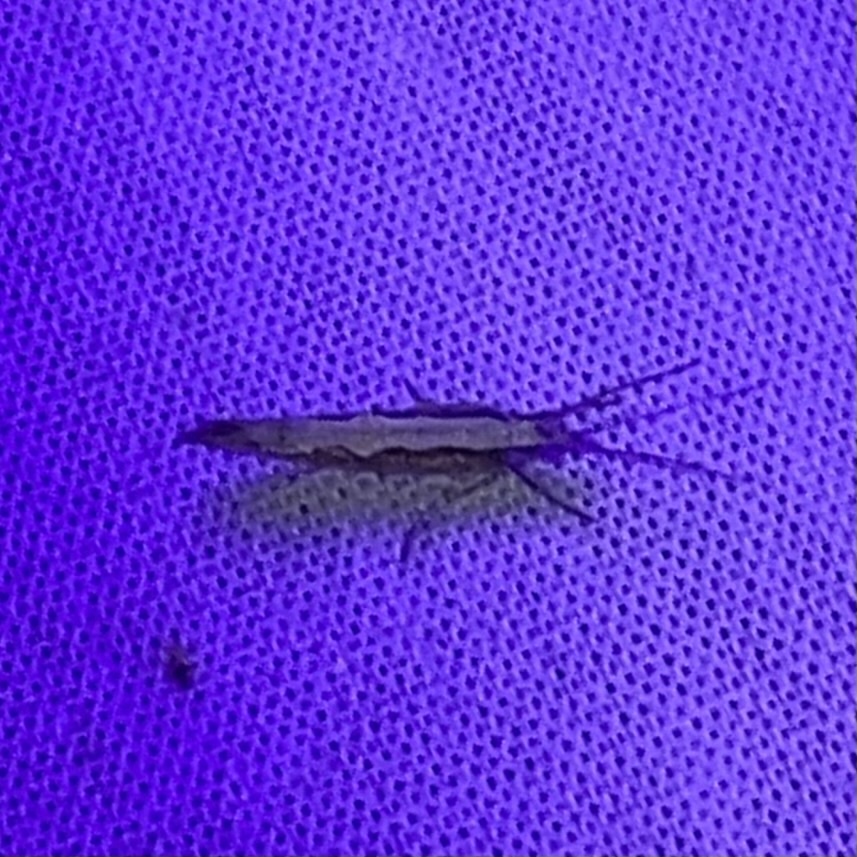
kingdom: Animalia
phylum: Arthropoda
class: Insecta
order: Lepidoptera
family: Plutellidae
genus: Plutella
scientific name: Plutella xylostella
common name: Diamond-back moth
